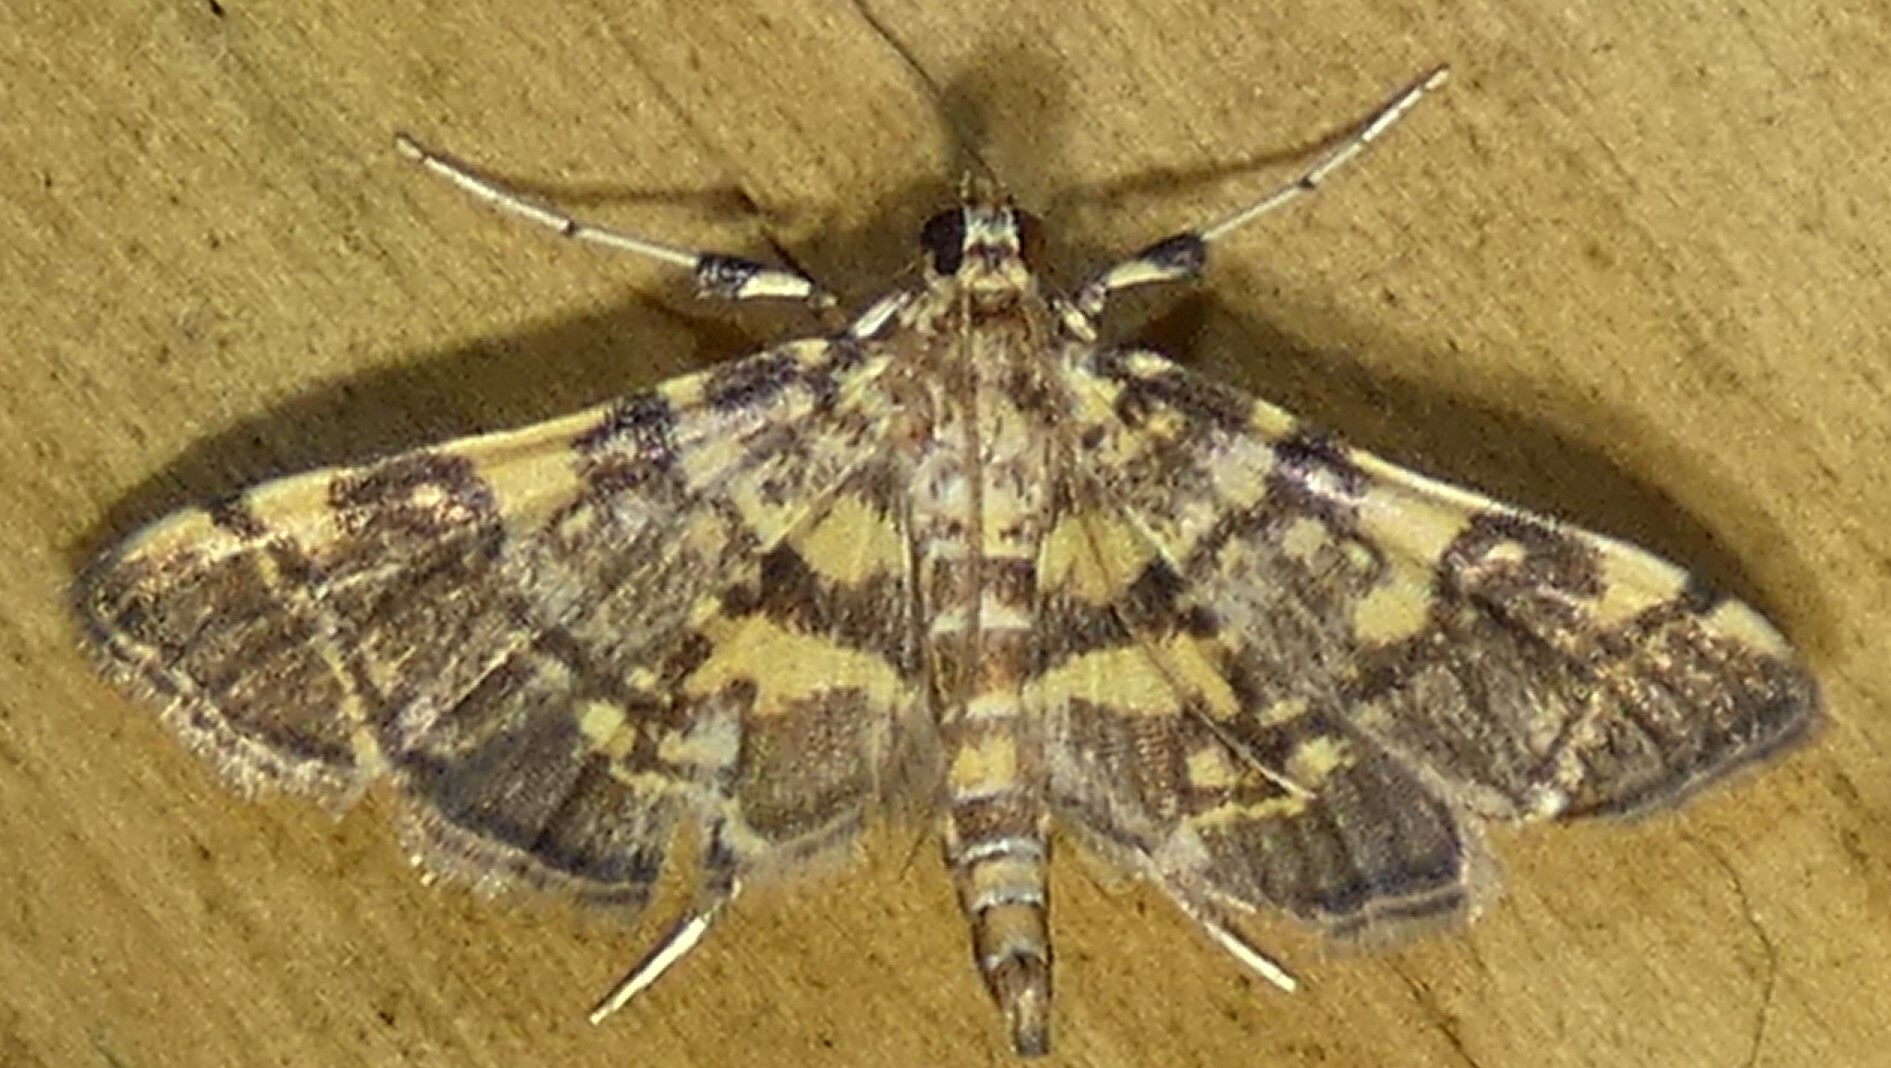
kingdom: Animalia
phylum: Arthropoda
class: Insecta
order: Lepidoptera
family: Crambidae
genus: Apogeshna
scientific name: Apogeshna stenialis
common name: Checkered apogeshna moth
